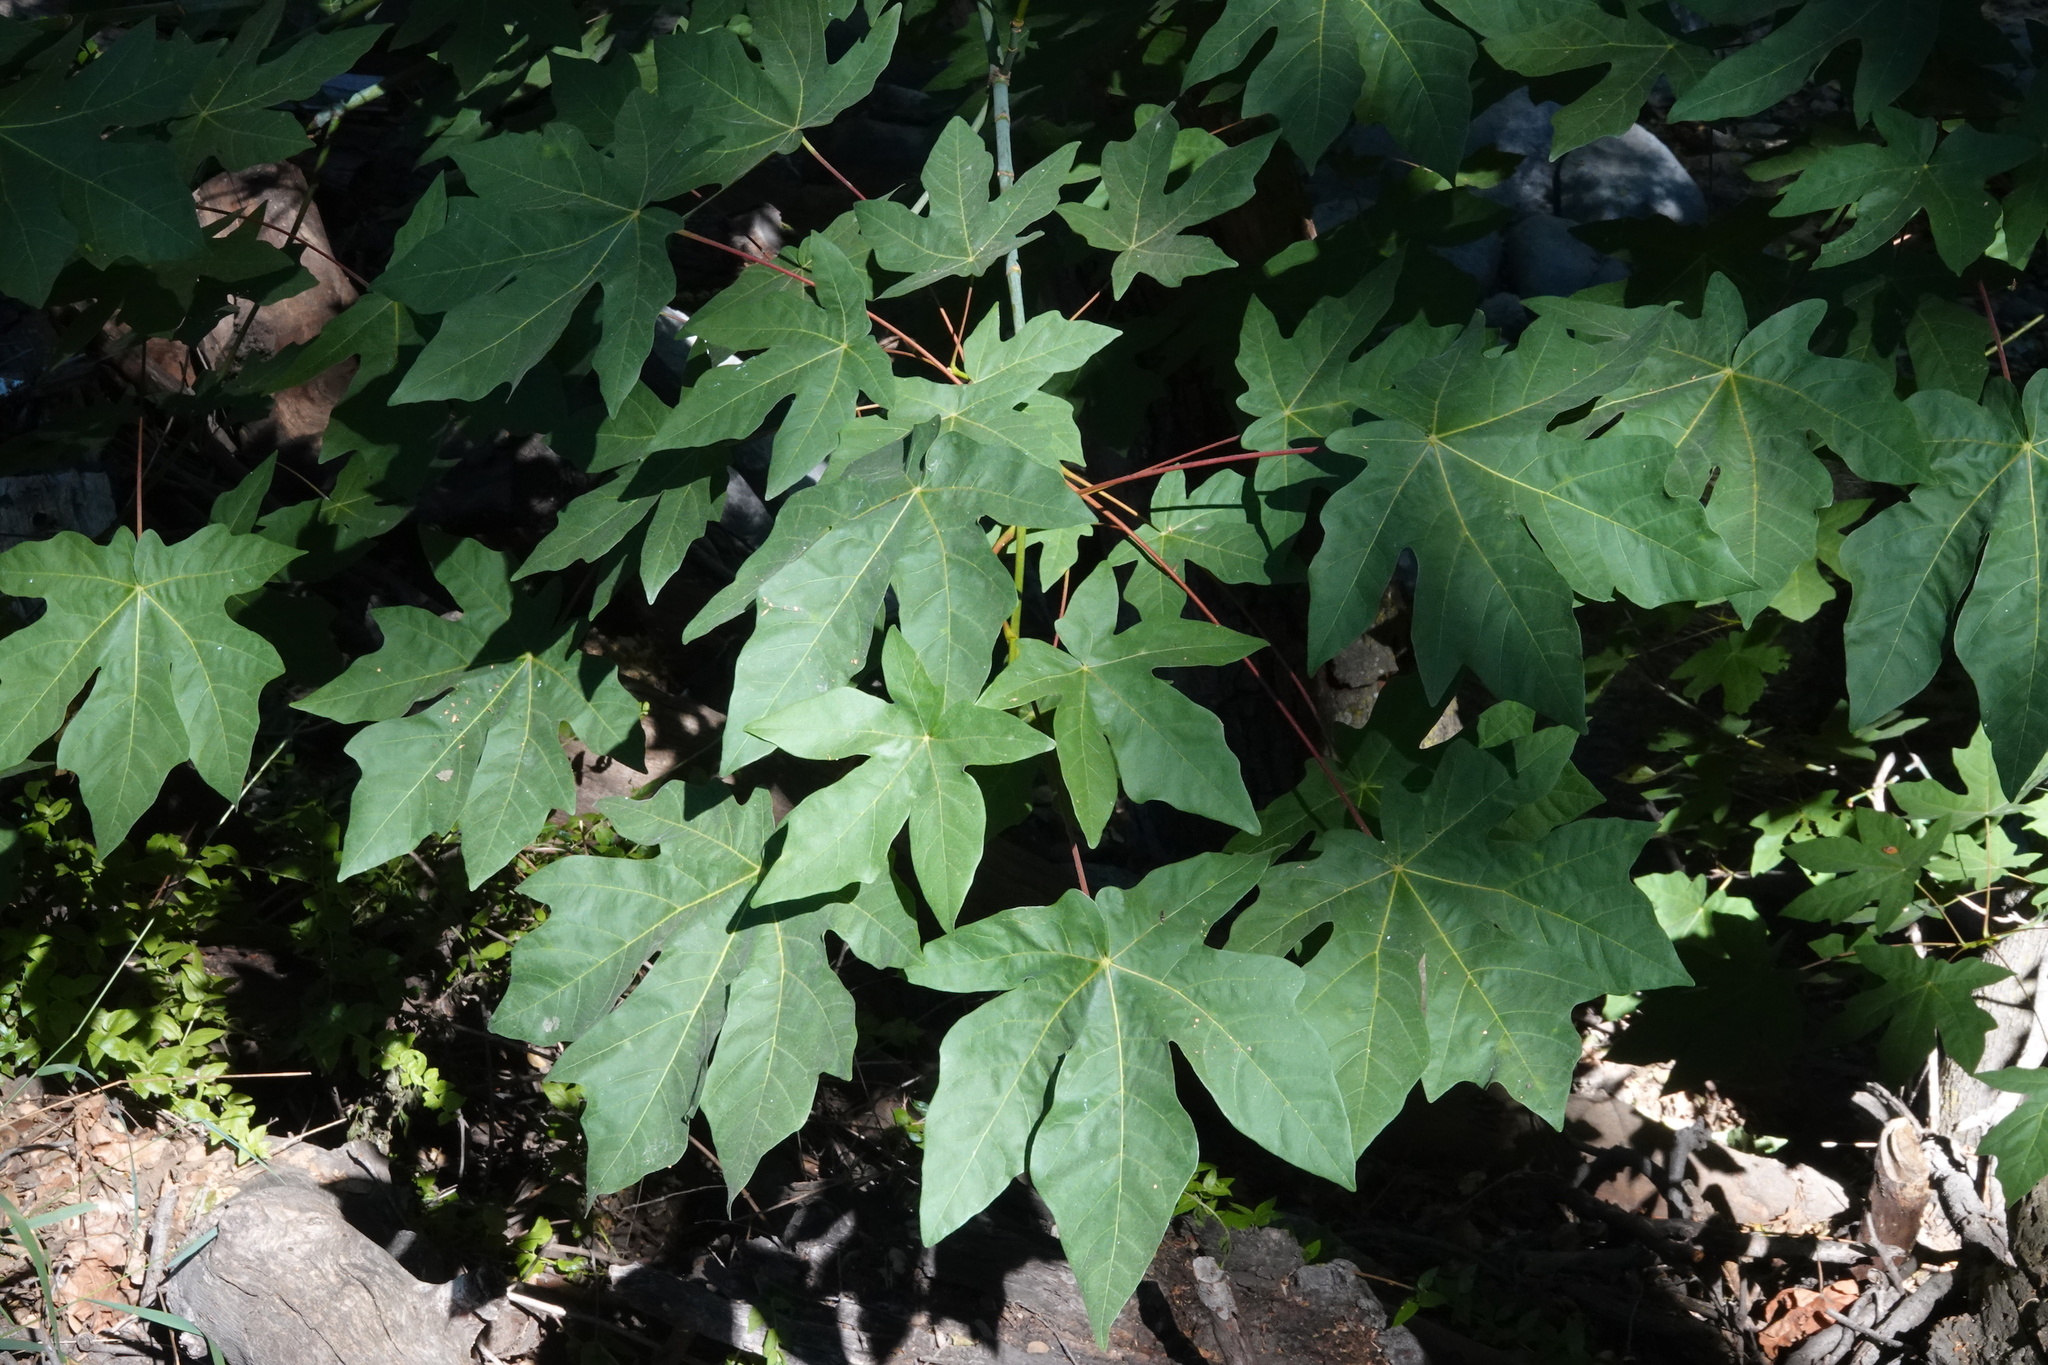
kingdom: Plantae
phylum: Tracheophyta
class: Magnoliopsida
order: Sapindales
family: Sapindaceae
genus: Acer
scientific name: Acer macrophyllum
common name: Oregon maple
